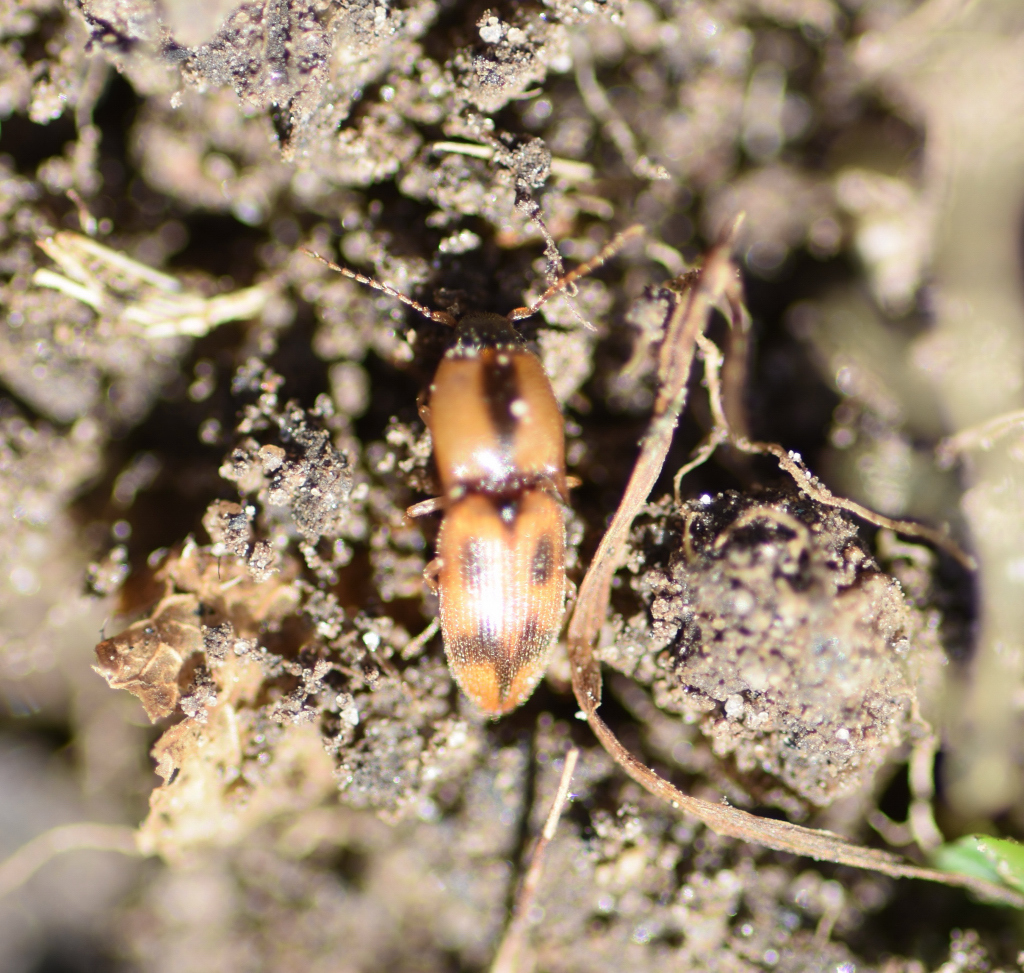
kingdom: Animalia
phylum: Arthropoda
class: Insecta
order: Coleoptera
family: Elateridae
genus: Aeolus
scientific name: Aeolus mellillus
